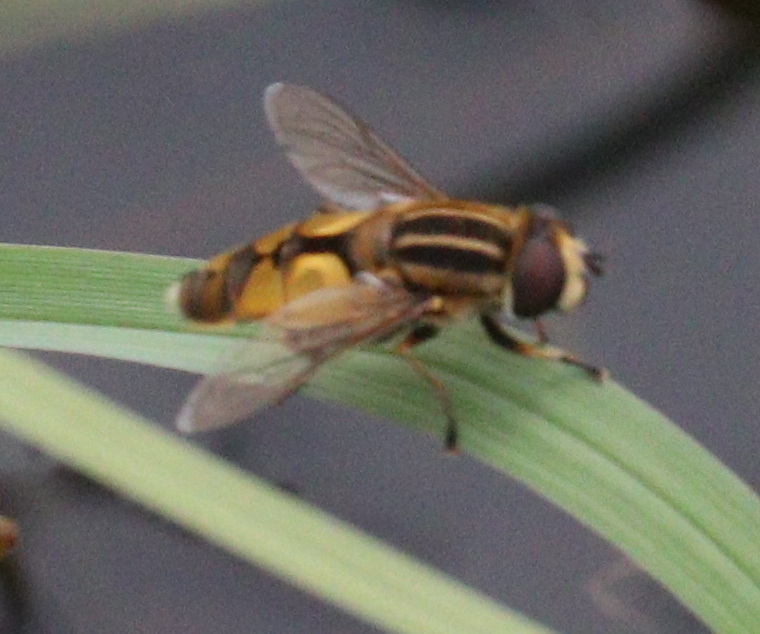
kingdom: Animalia
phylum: Arthropoda
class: Insecta
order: Diptera
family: Syrphidae
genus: Helophilus
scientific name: Helophilus hybridus
